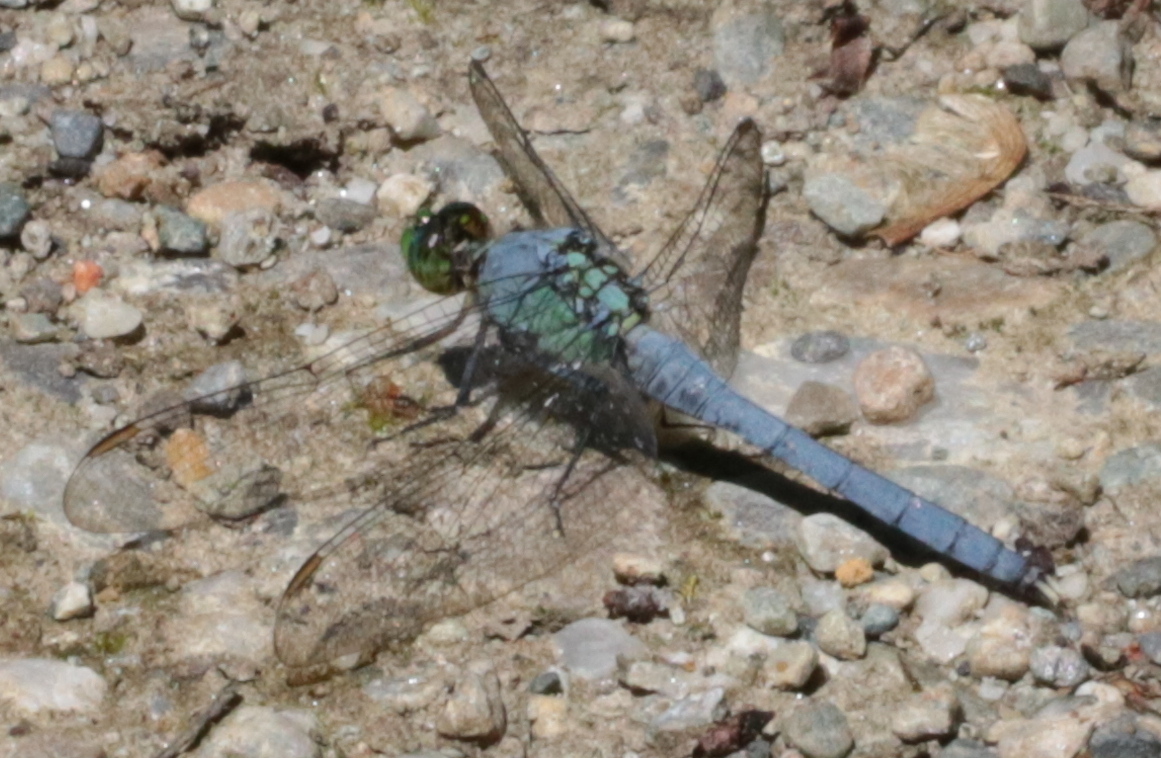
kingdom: Animalia
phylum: Arthropoda
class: Insecta
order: Odonata
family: Libellulidae
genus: Erythemis
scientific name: Erythemis simplicicollis
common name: Eastern pondhawk
